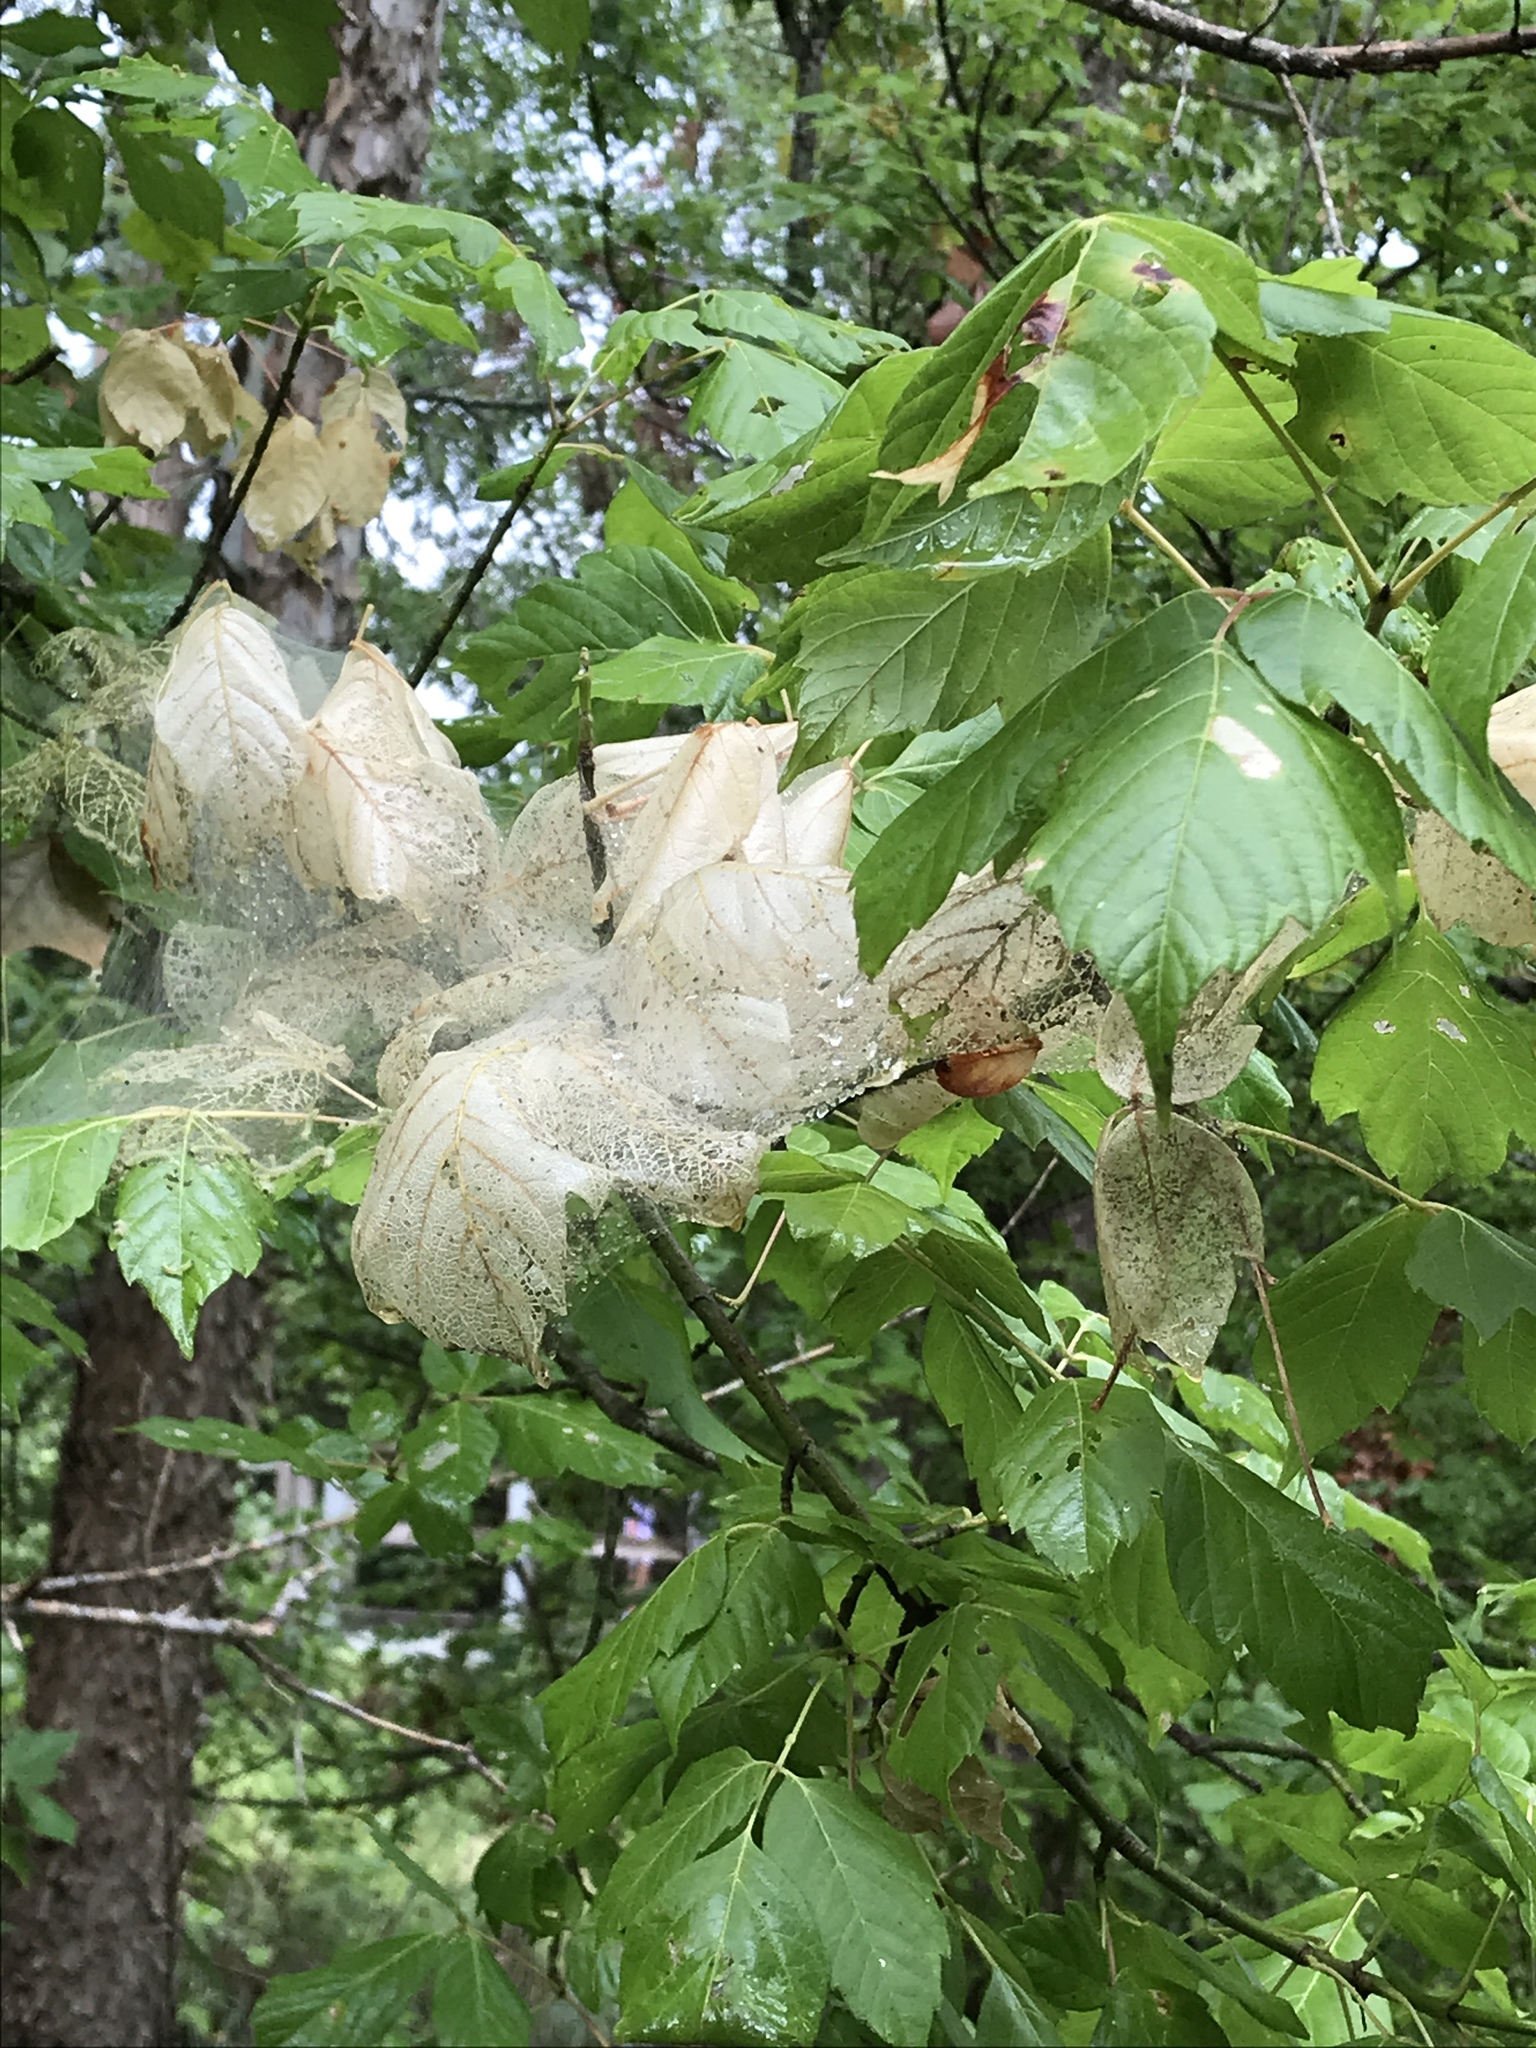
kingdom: Animalia
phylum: Arthropoda
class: Insecta
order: Hemiptera
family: Reduviidae
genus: Pselliopus
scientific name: Pselliopus barberi
